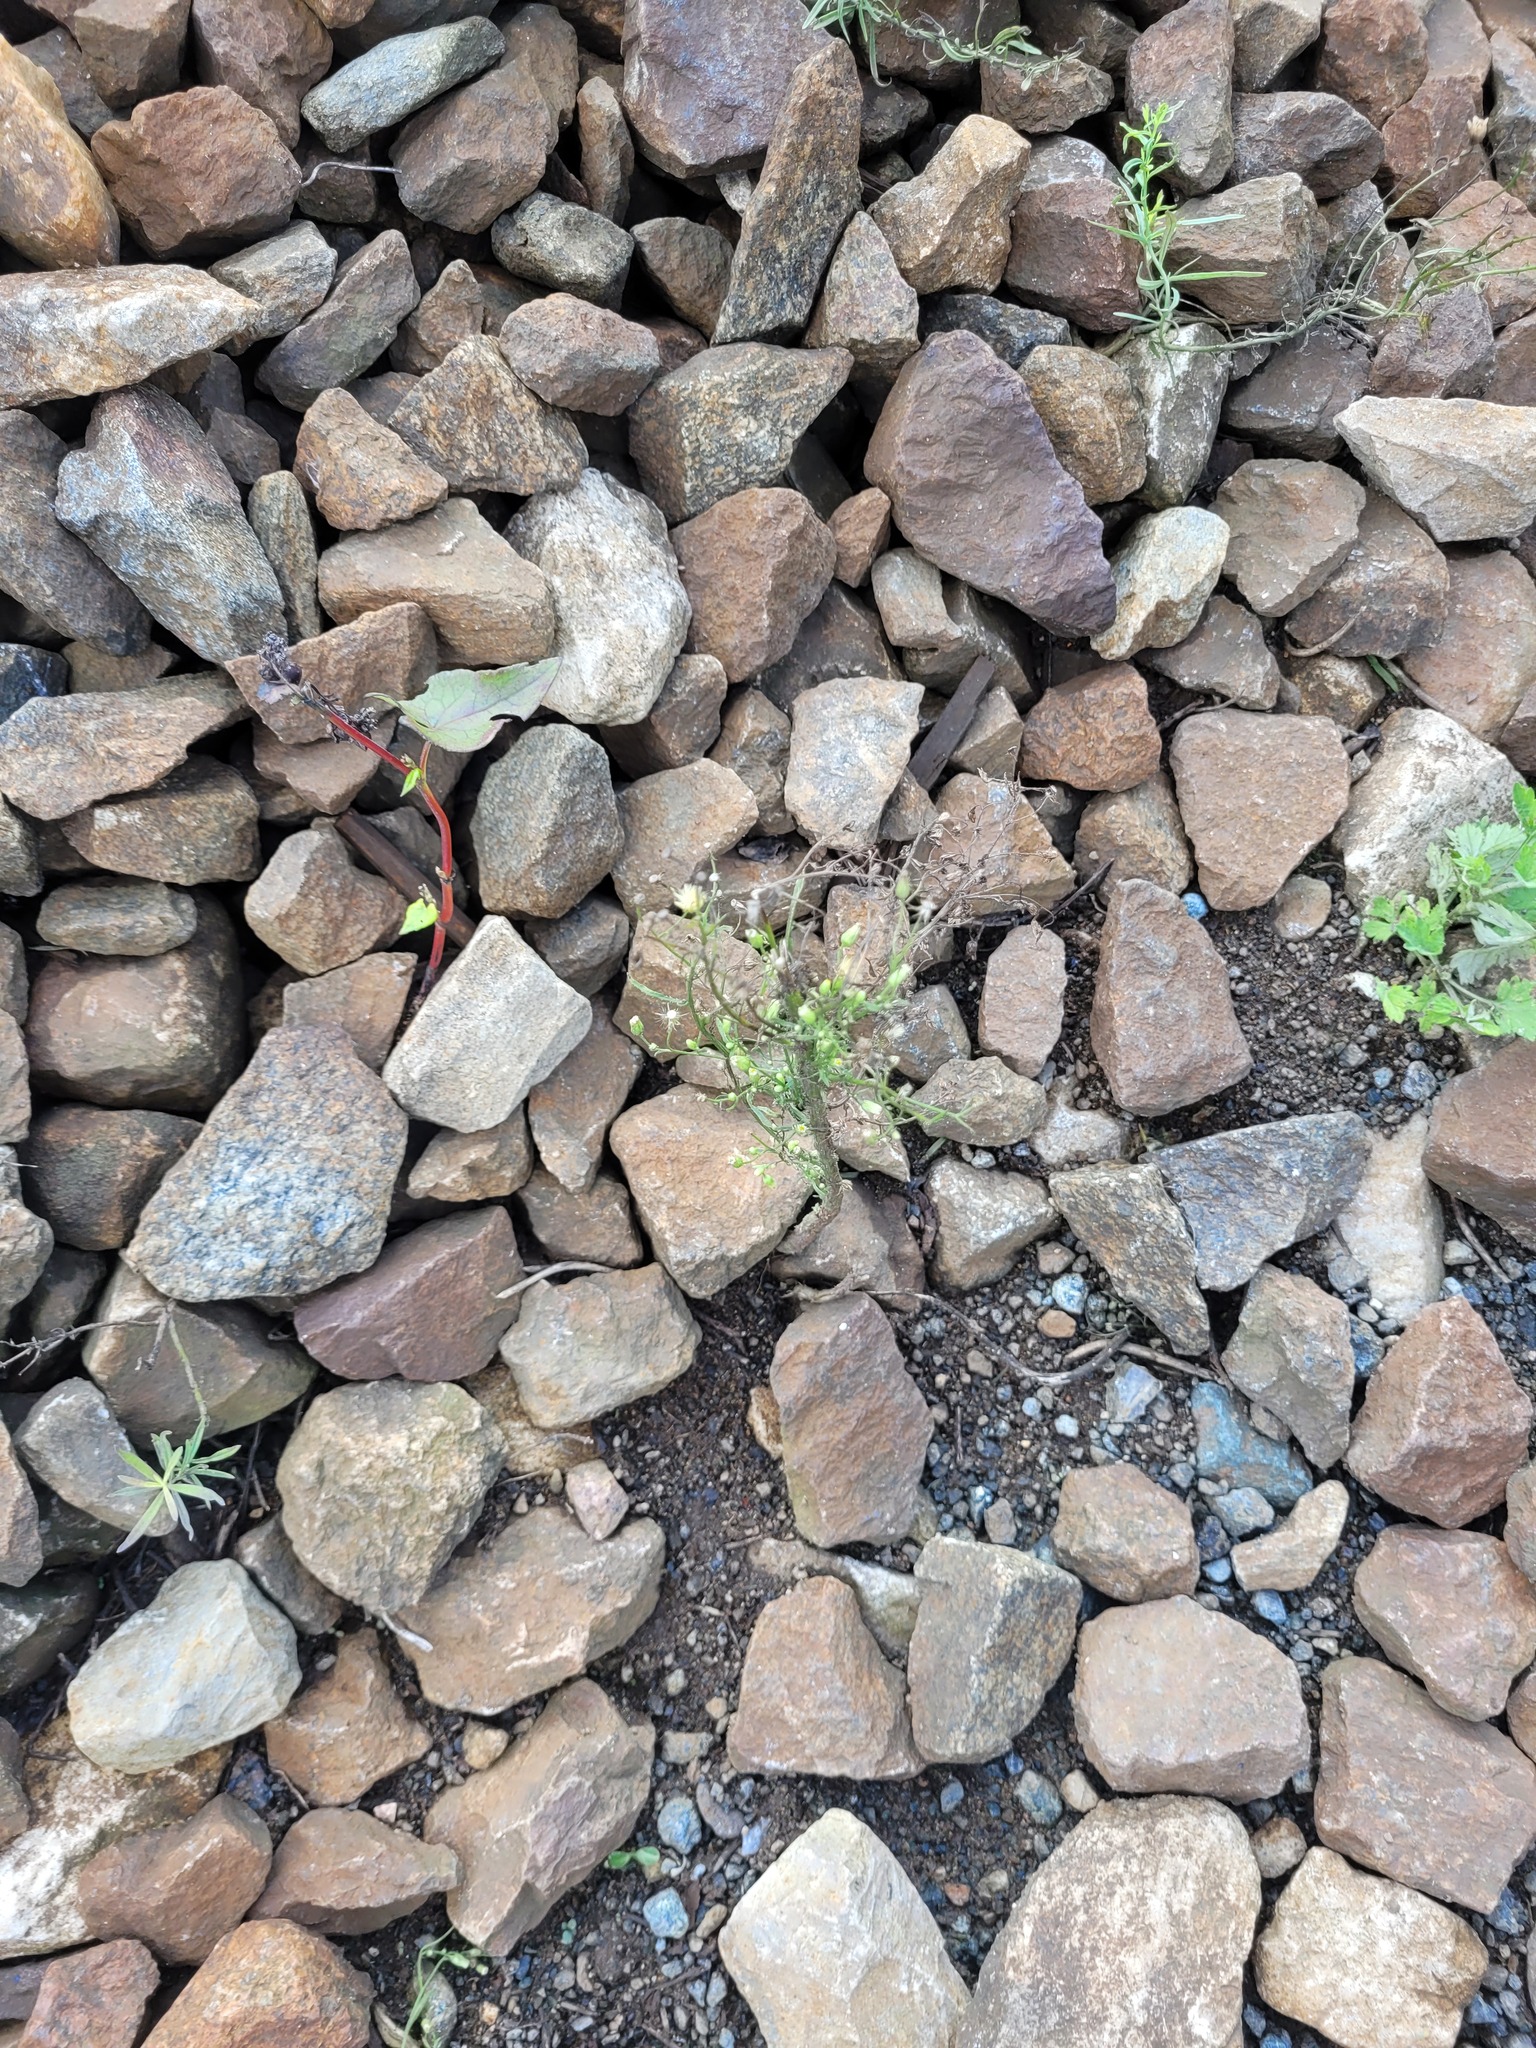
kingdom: Plantae
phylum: Tracheophyta
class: Magnoliopsida
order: Asterales
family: Asteraceae
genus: Erigeron
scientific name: Erigeron canadensis
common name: Canadian fleabane
